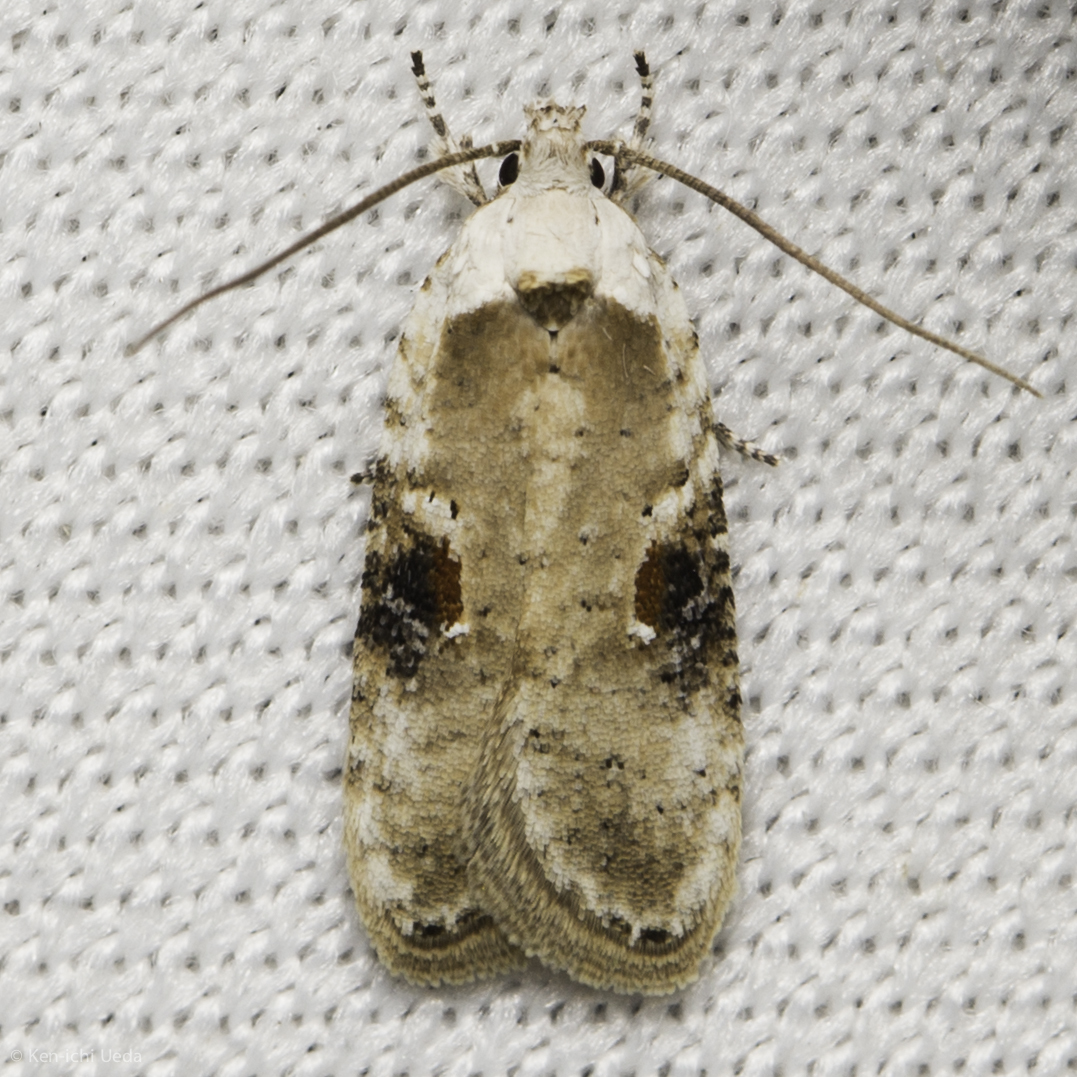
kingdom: Animalia
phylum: Arthropoda
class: Insecta
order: Lepidoptera
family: Depressariidae
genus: Agonopterix
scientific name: Agonopterix alstroemeriana
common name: Moth
